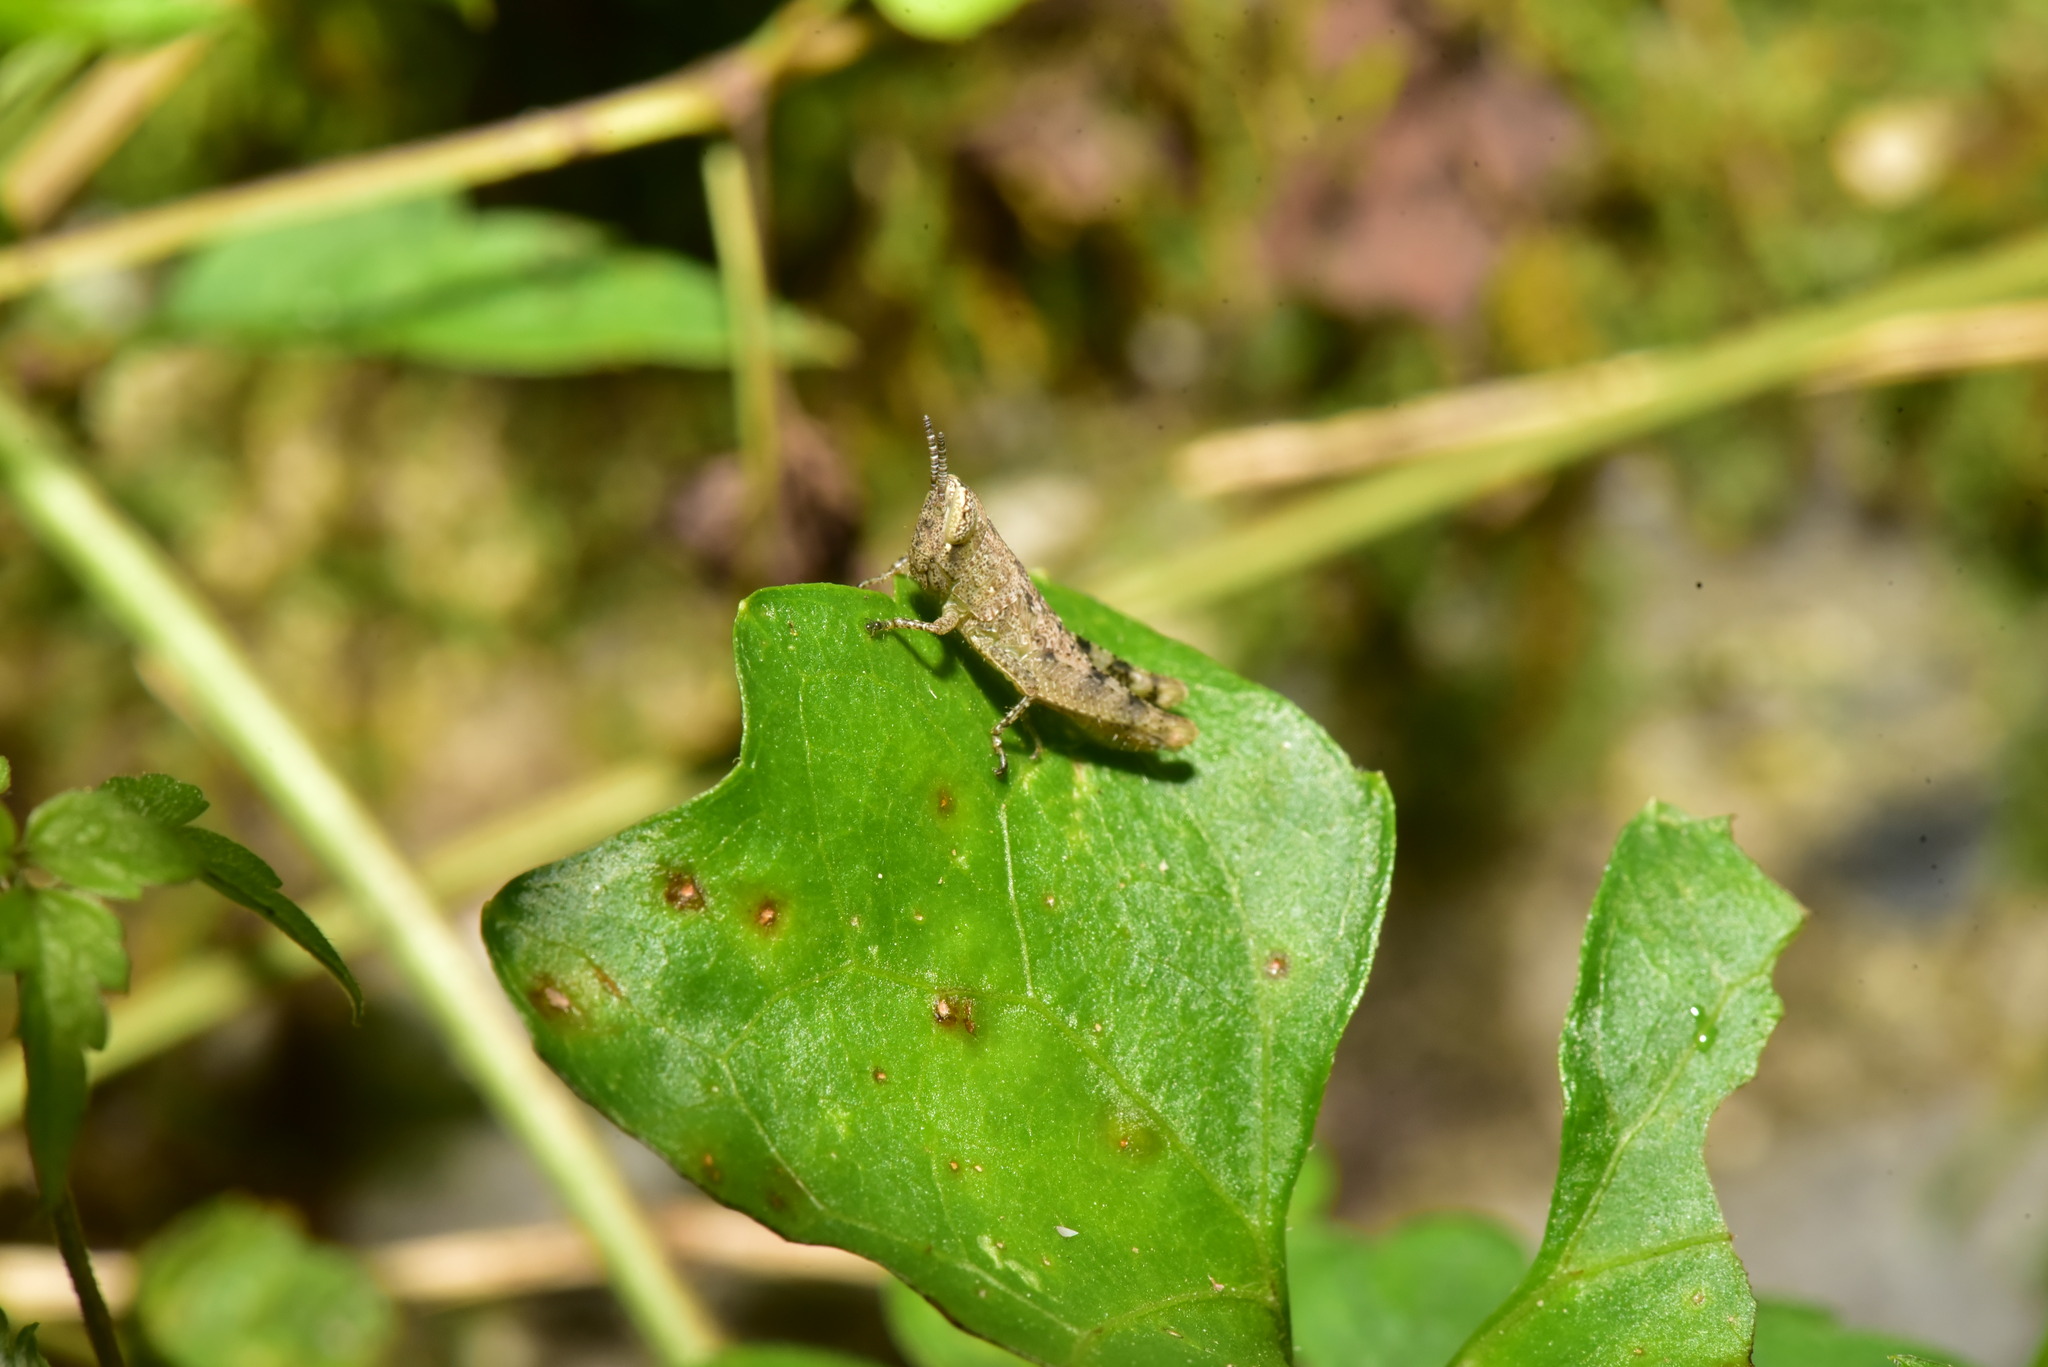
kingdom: Animalia
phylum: Arthropoda
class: Insecta
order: Orthoptera
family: Acrididae
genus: Pseudoxya
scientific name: Pseudoxya diminuta
